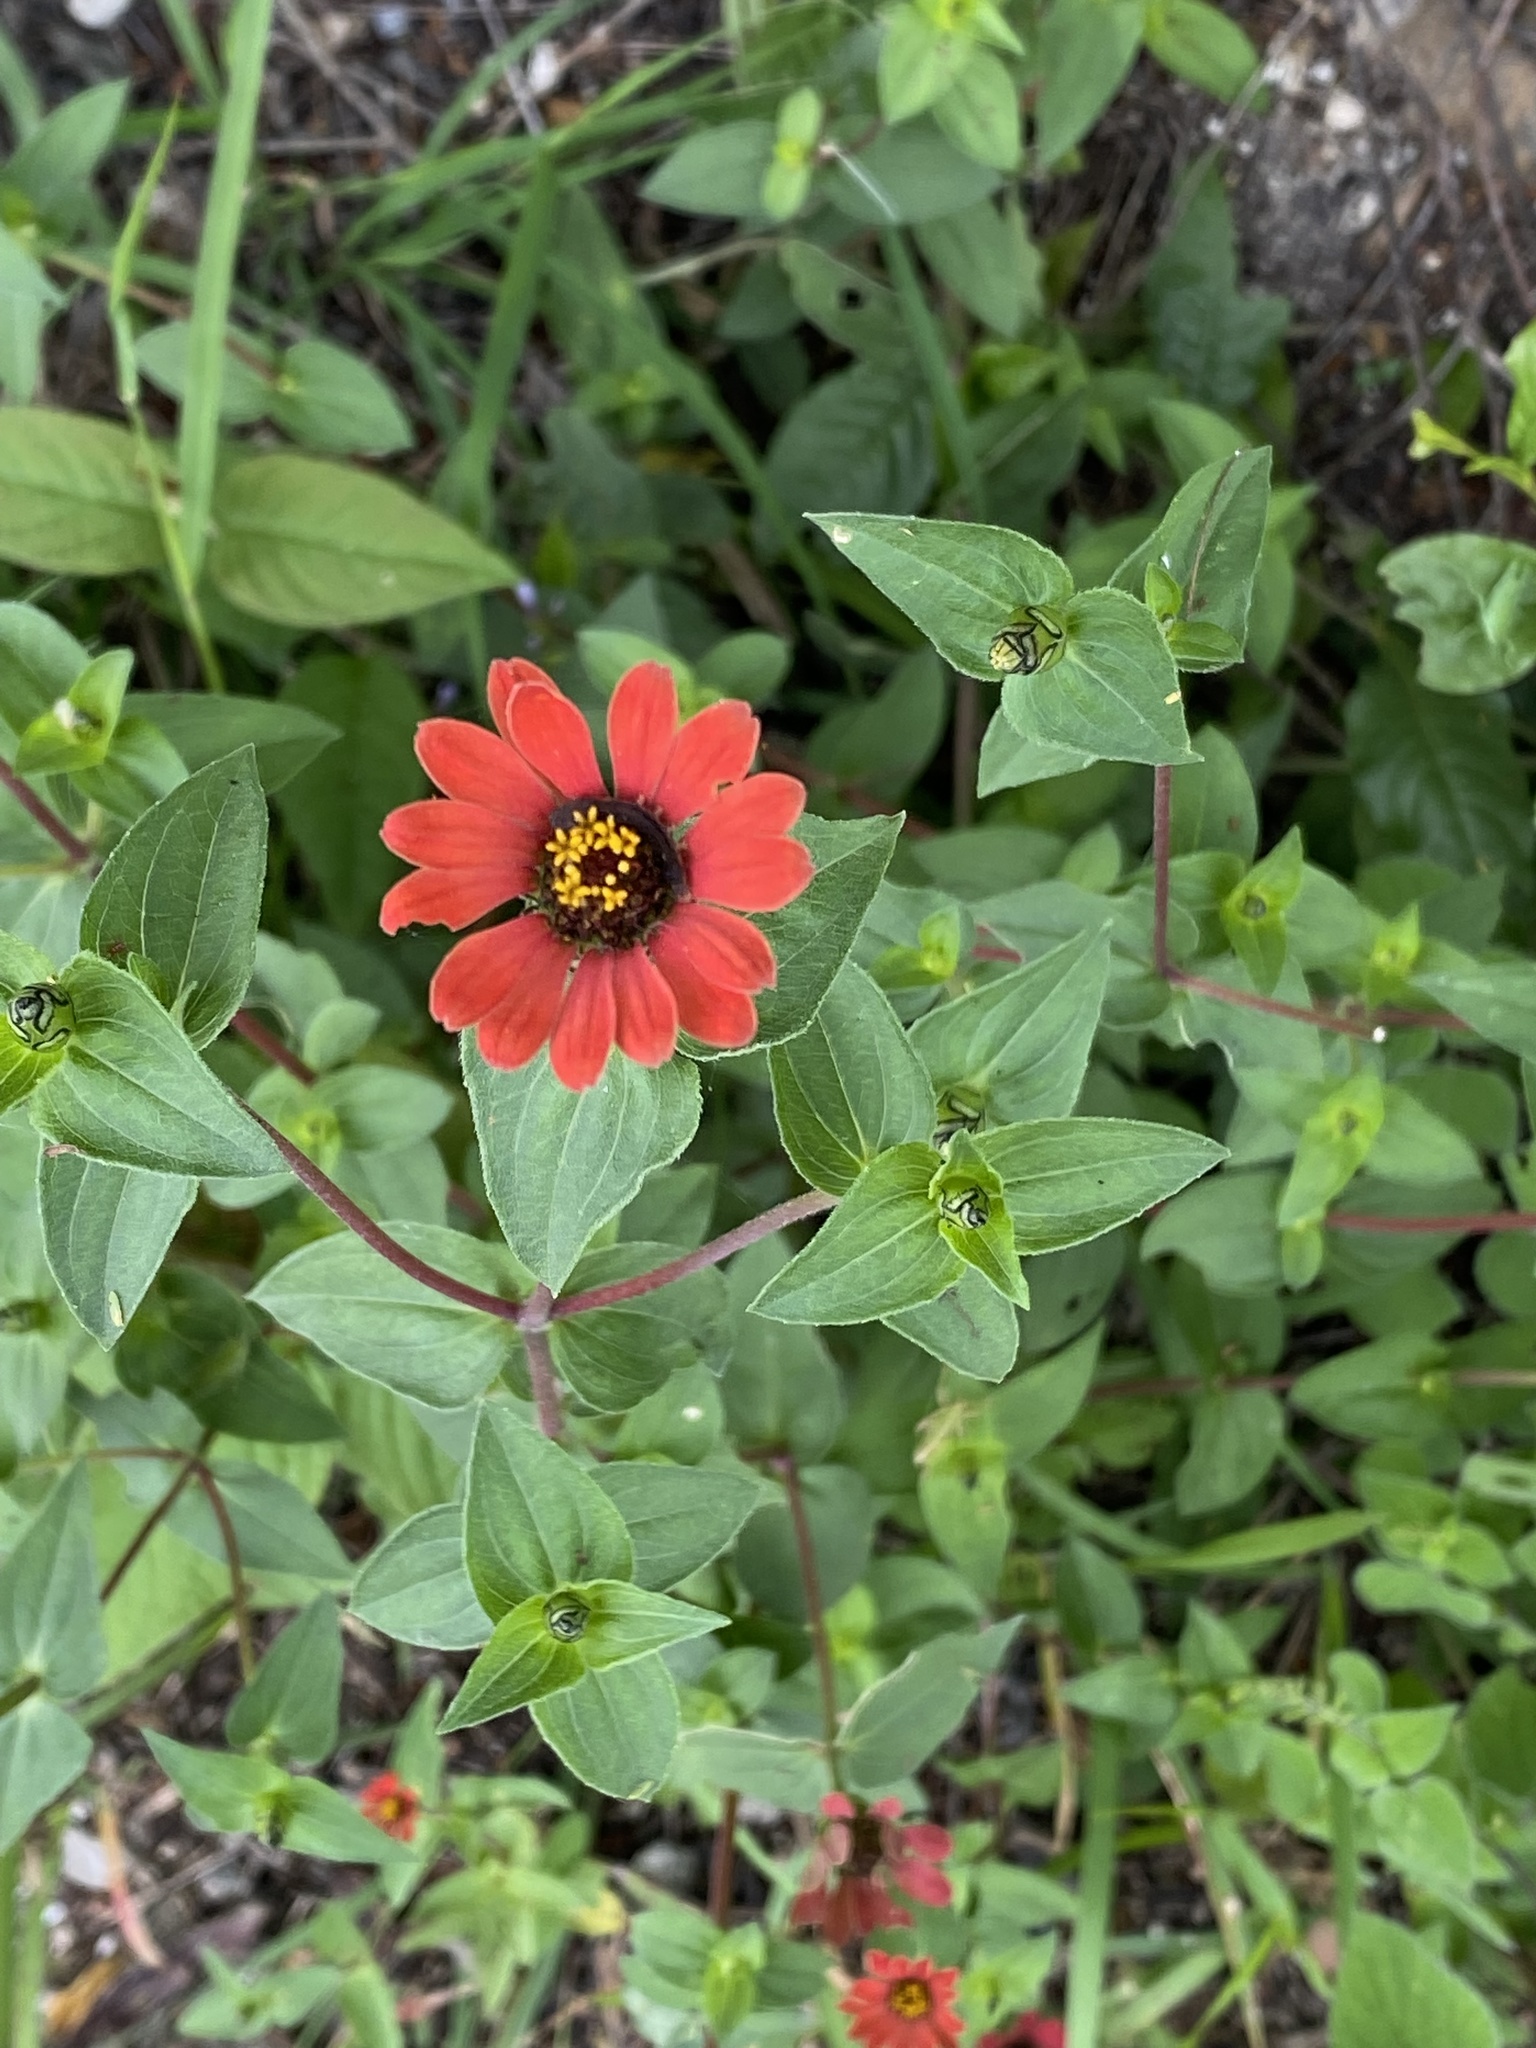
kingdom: Plantae
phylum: Tracheophyta
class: Magnoliopsida
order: Asterales
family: Asteraceae
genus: Zinnia
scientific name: Zinnia peruviana
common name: Peruvian zinnia
